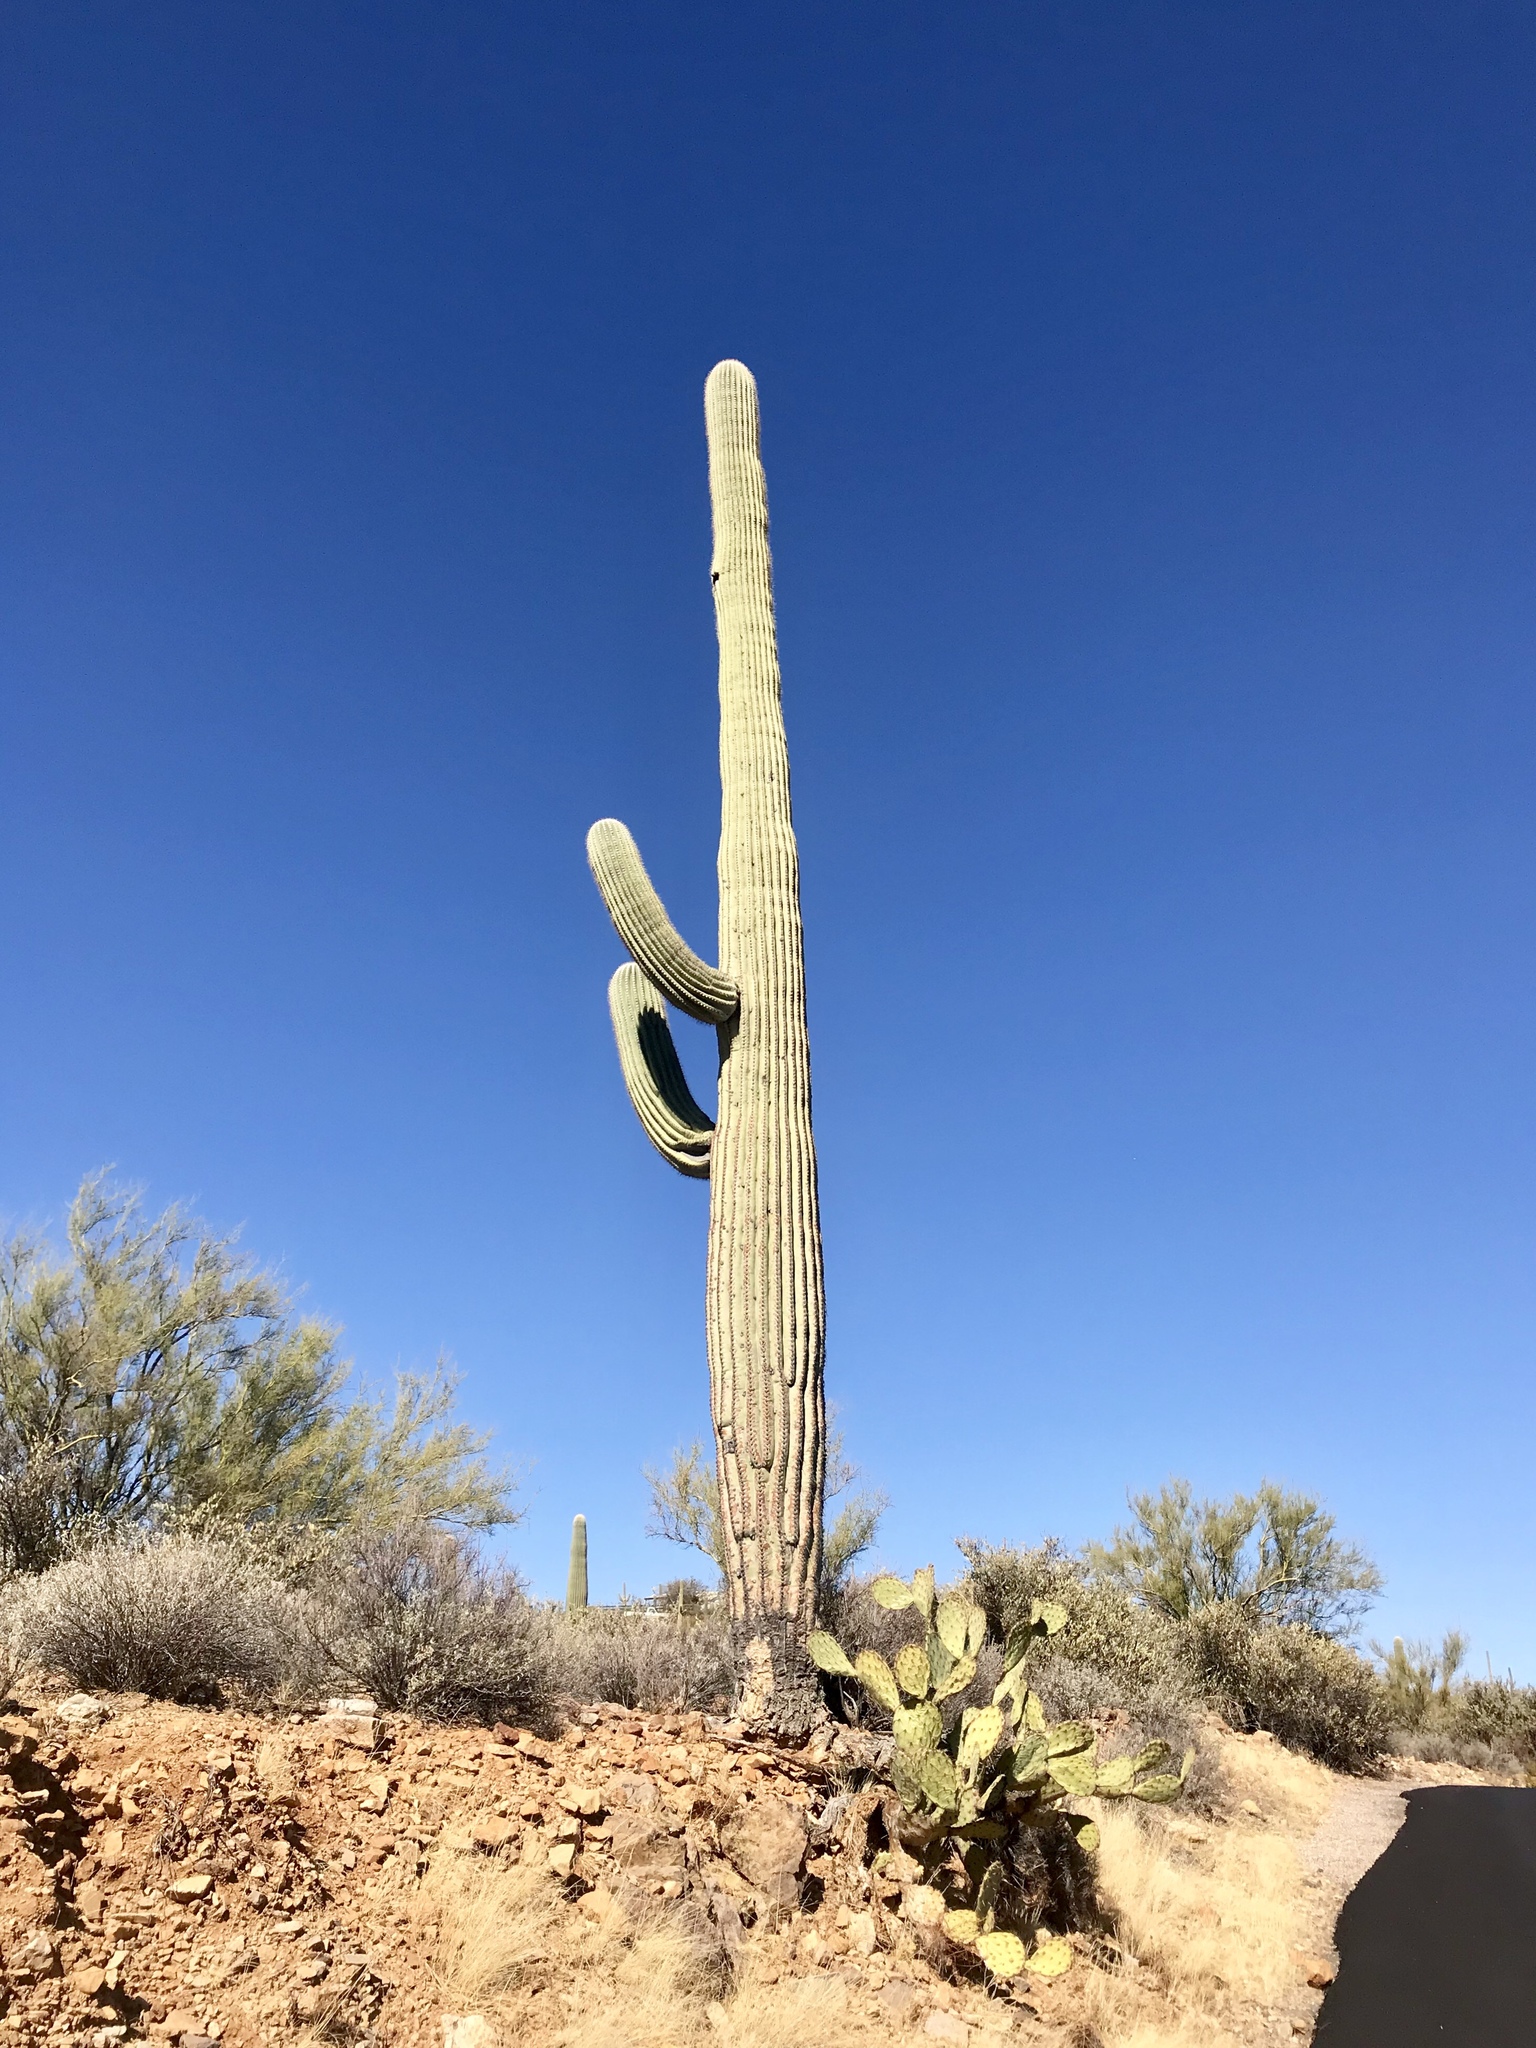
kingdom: Plantae
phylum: Tracheophyta
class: Magnoliopsida
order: Caryophyllales
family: Cactaceae
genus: Carnegiea
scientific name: Carnegiea gigantea
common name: Saguaro
